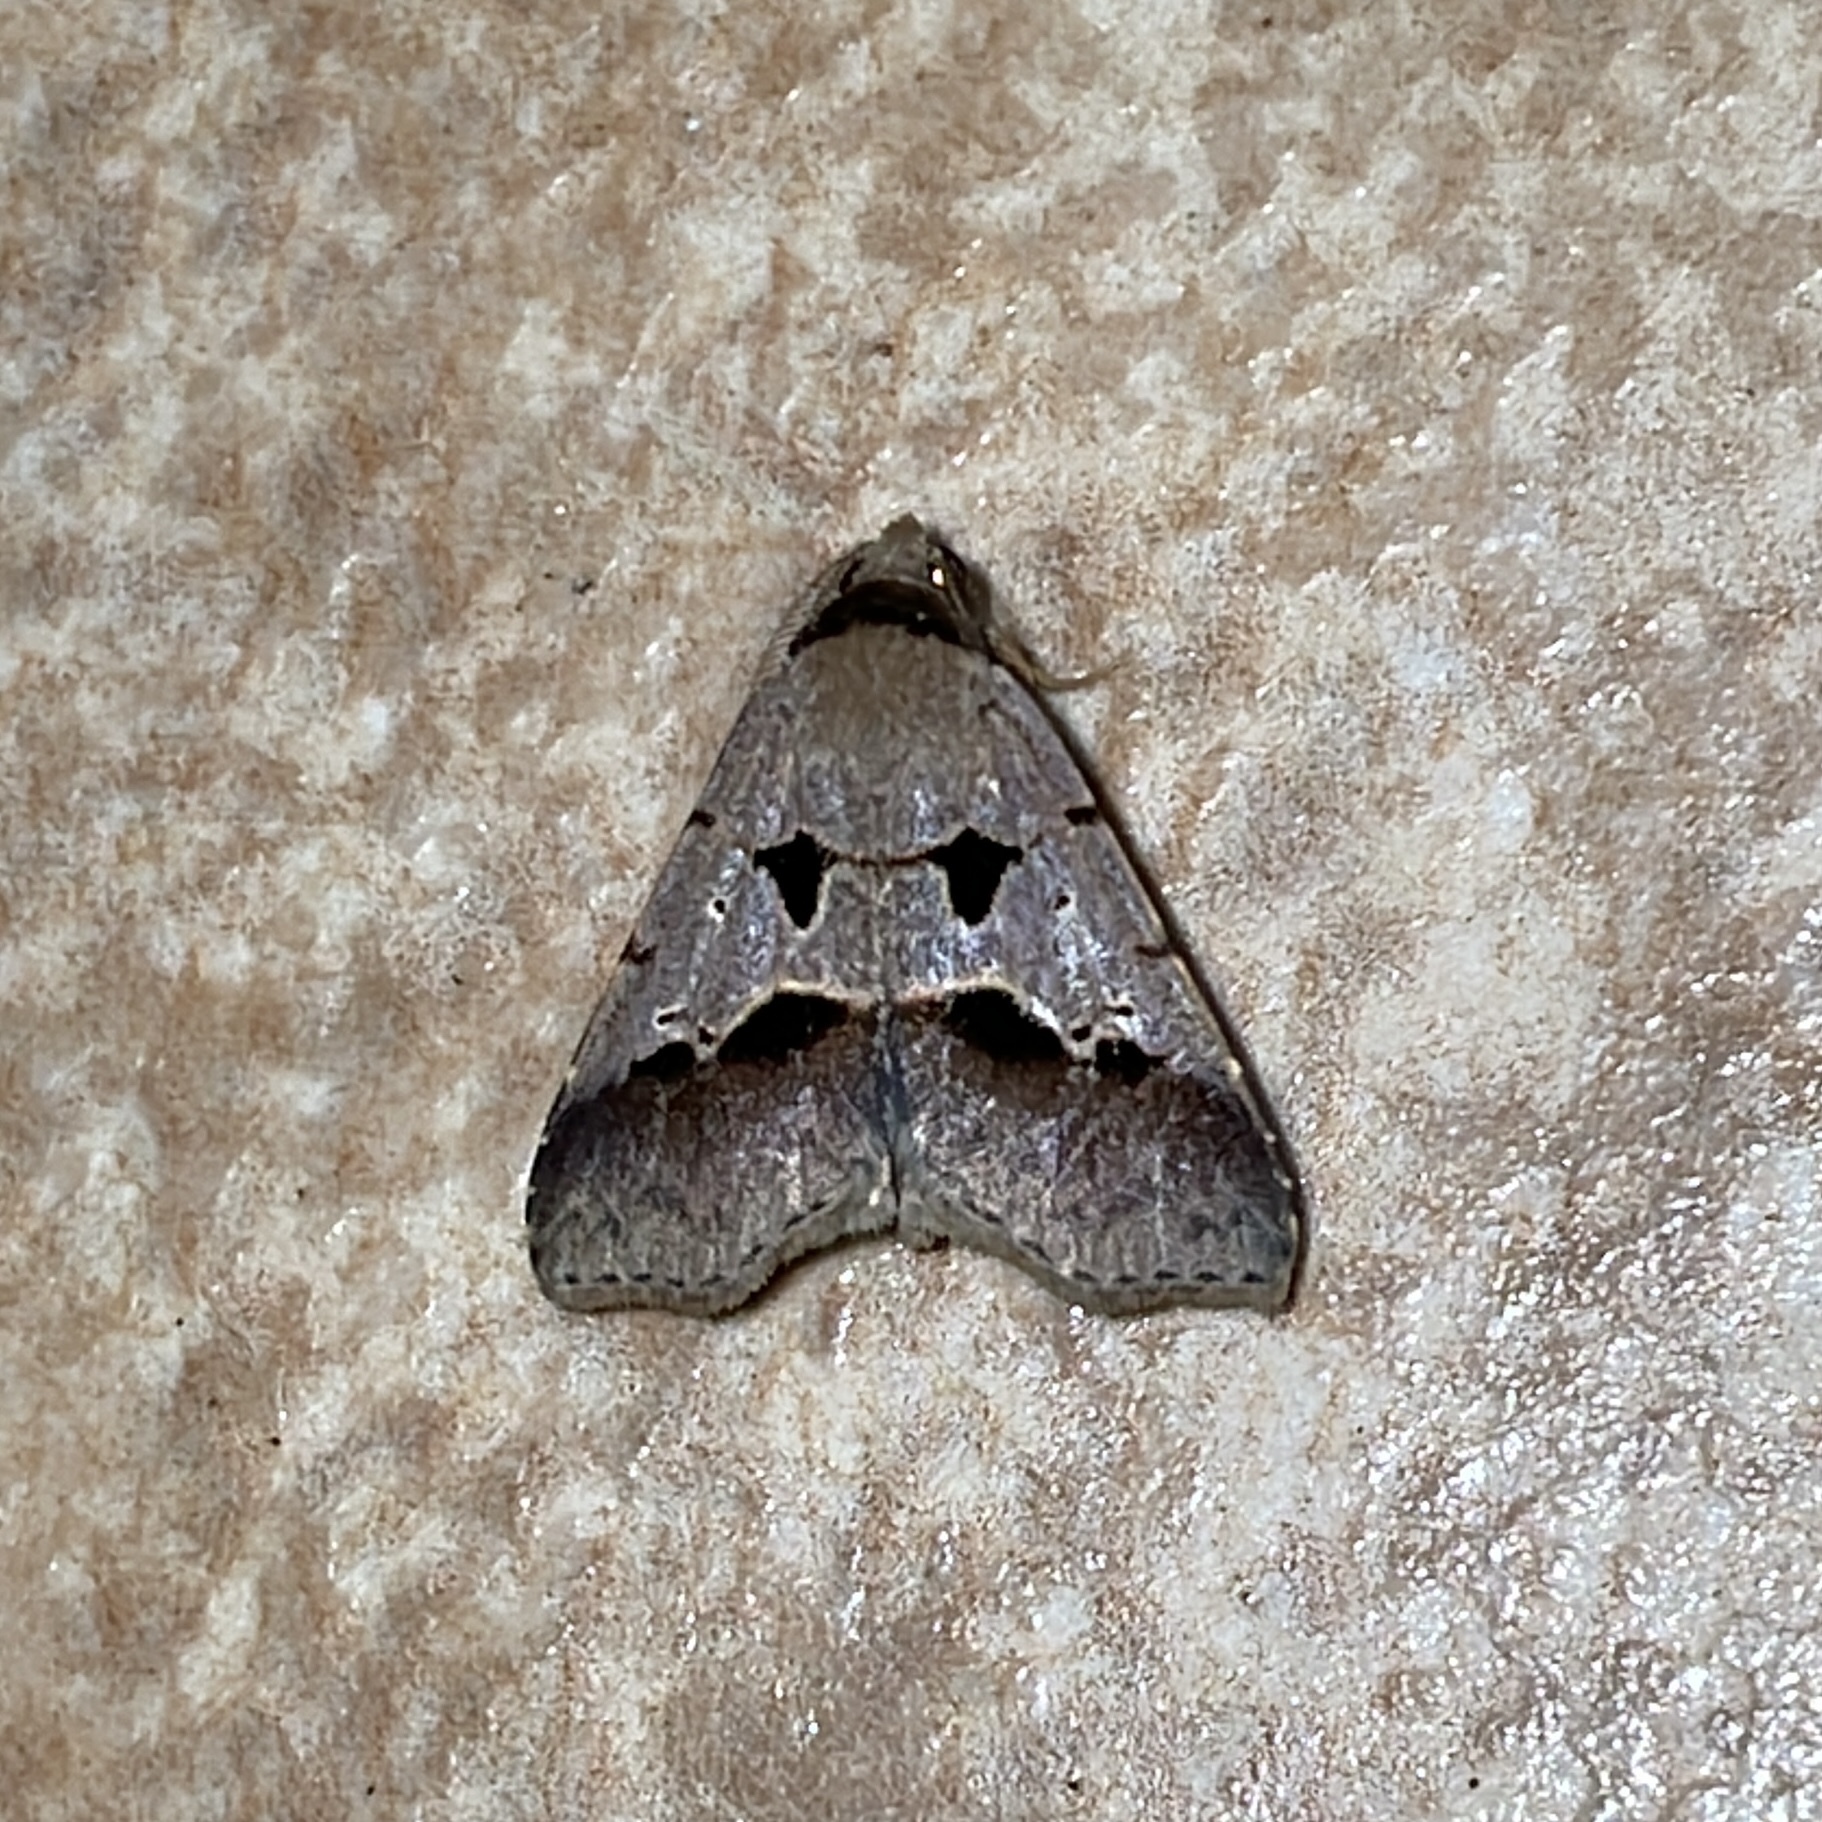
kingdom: Animalia
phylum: Arthropoda
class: Insecta
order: Lepidoptera
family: Erebidae
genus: Baniana
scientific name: Baniana inaequalis
